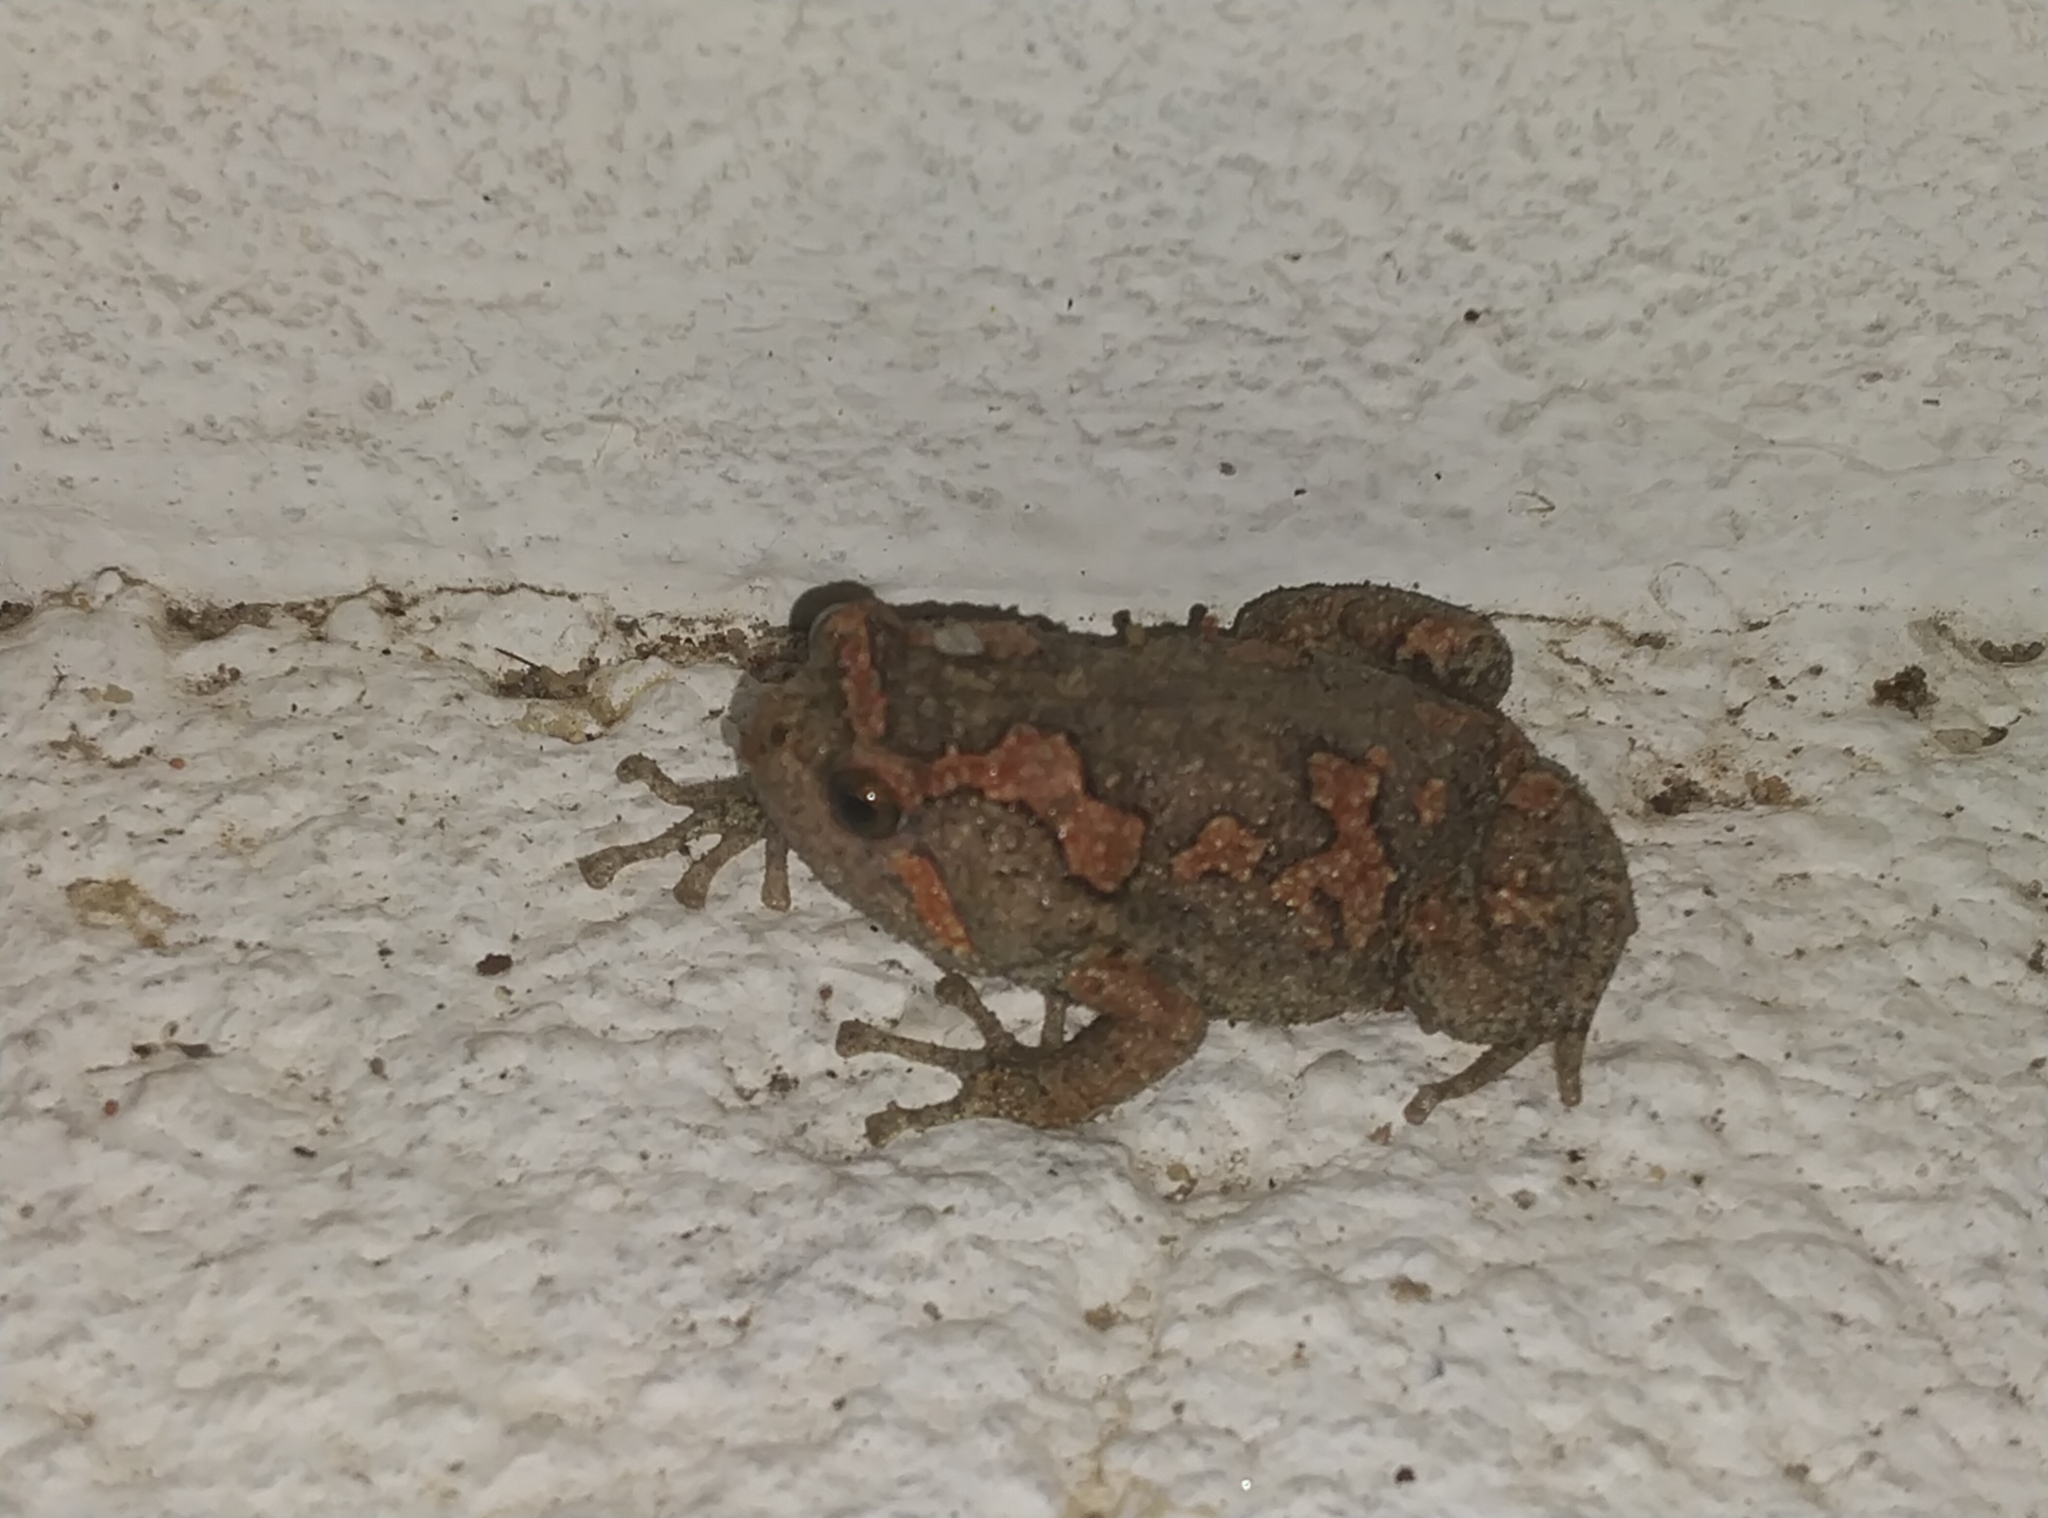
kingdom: Animalia
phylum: Chordata
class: Amphibia
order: Anura
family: Microhylidae
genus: Uperodon
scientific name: Uperodon taprobanicus
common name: Ceylon kaloula
